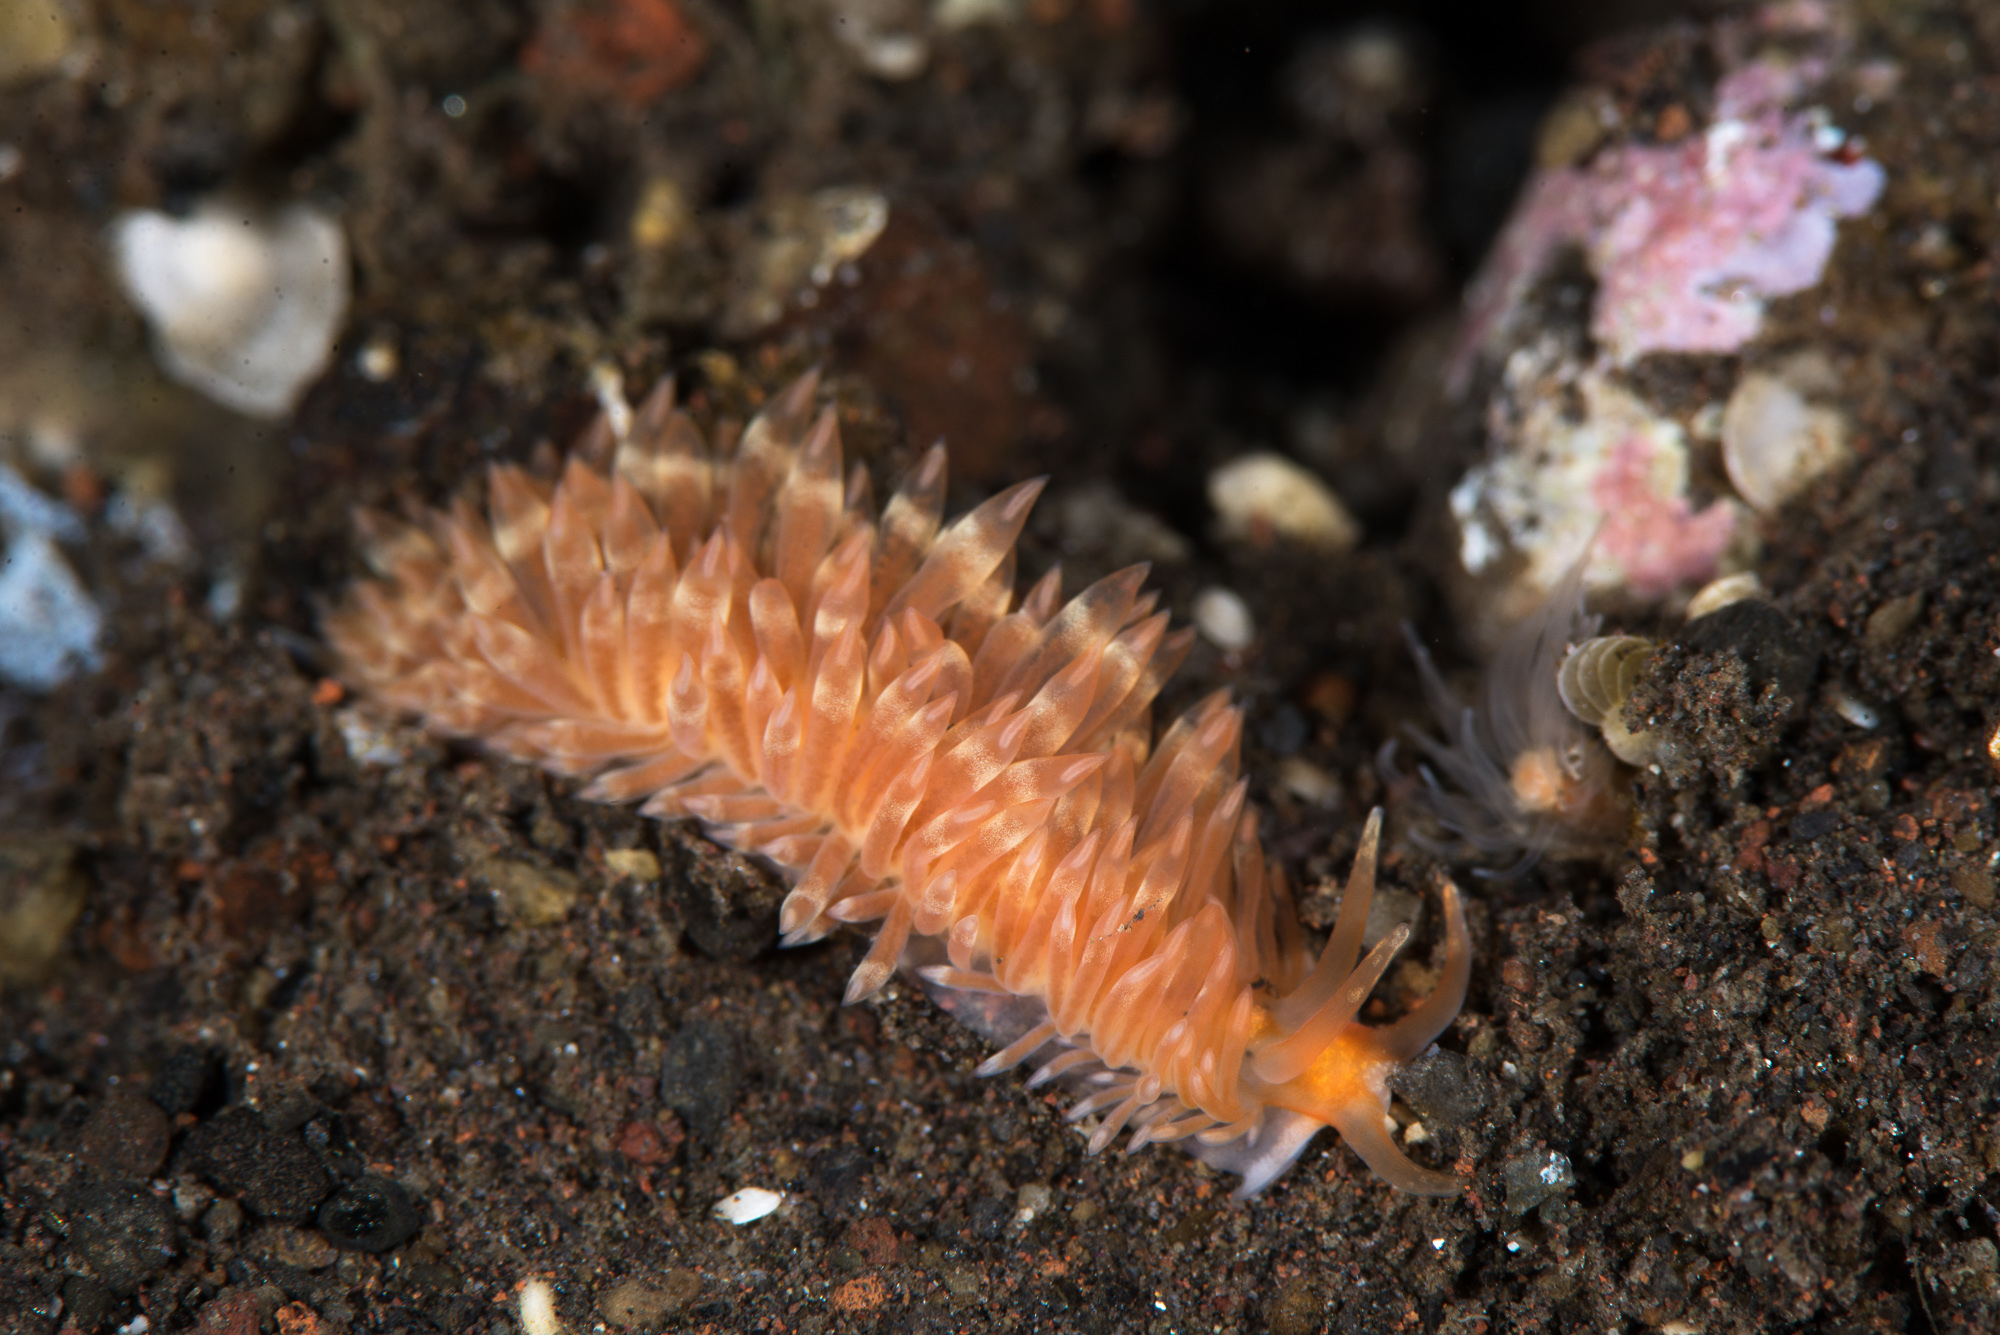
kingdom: Animalia
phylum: Mollusca
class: Gastropoda
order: Nudibranchia
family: Aeolidiidae
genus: Anteaeolidiella
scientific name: Anteaeolidiella cacaotica
